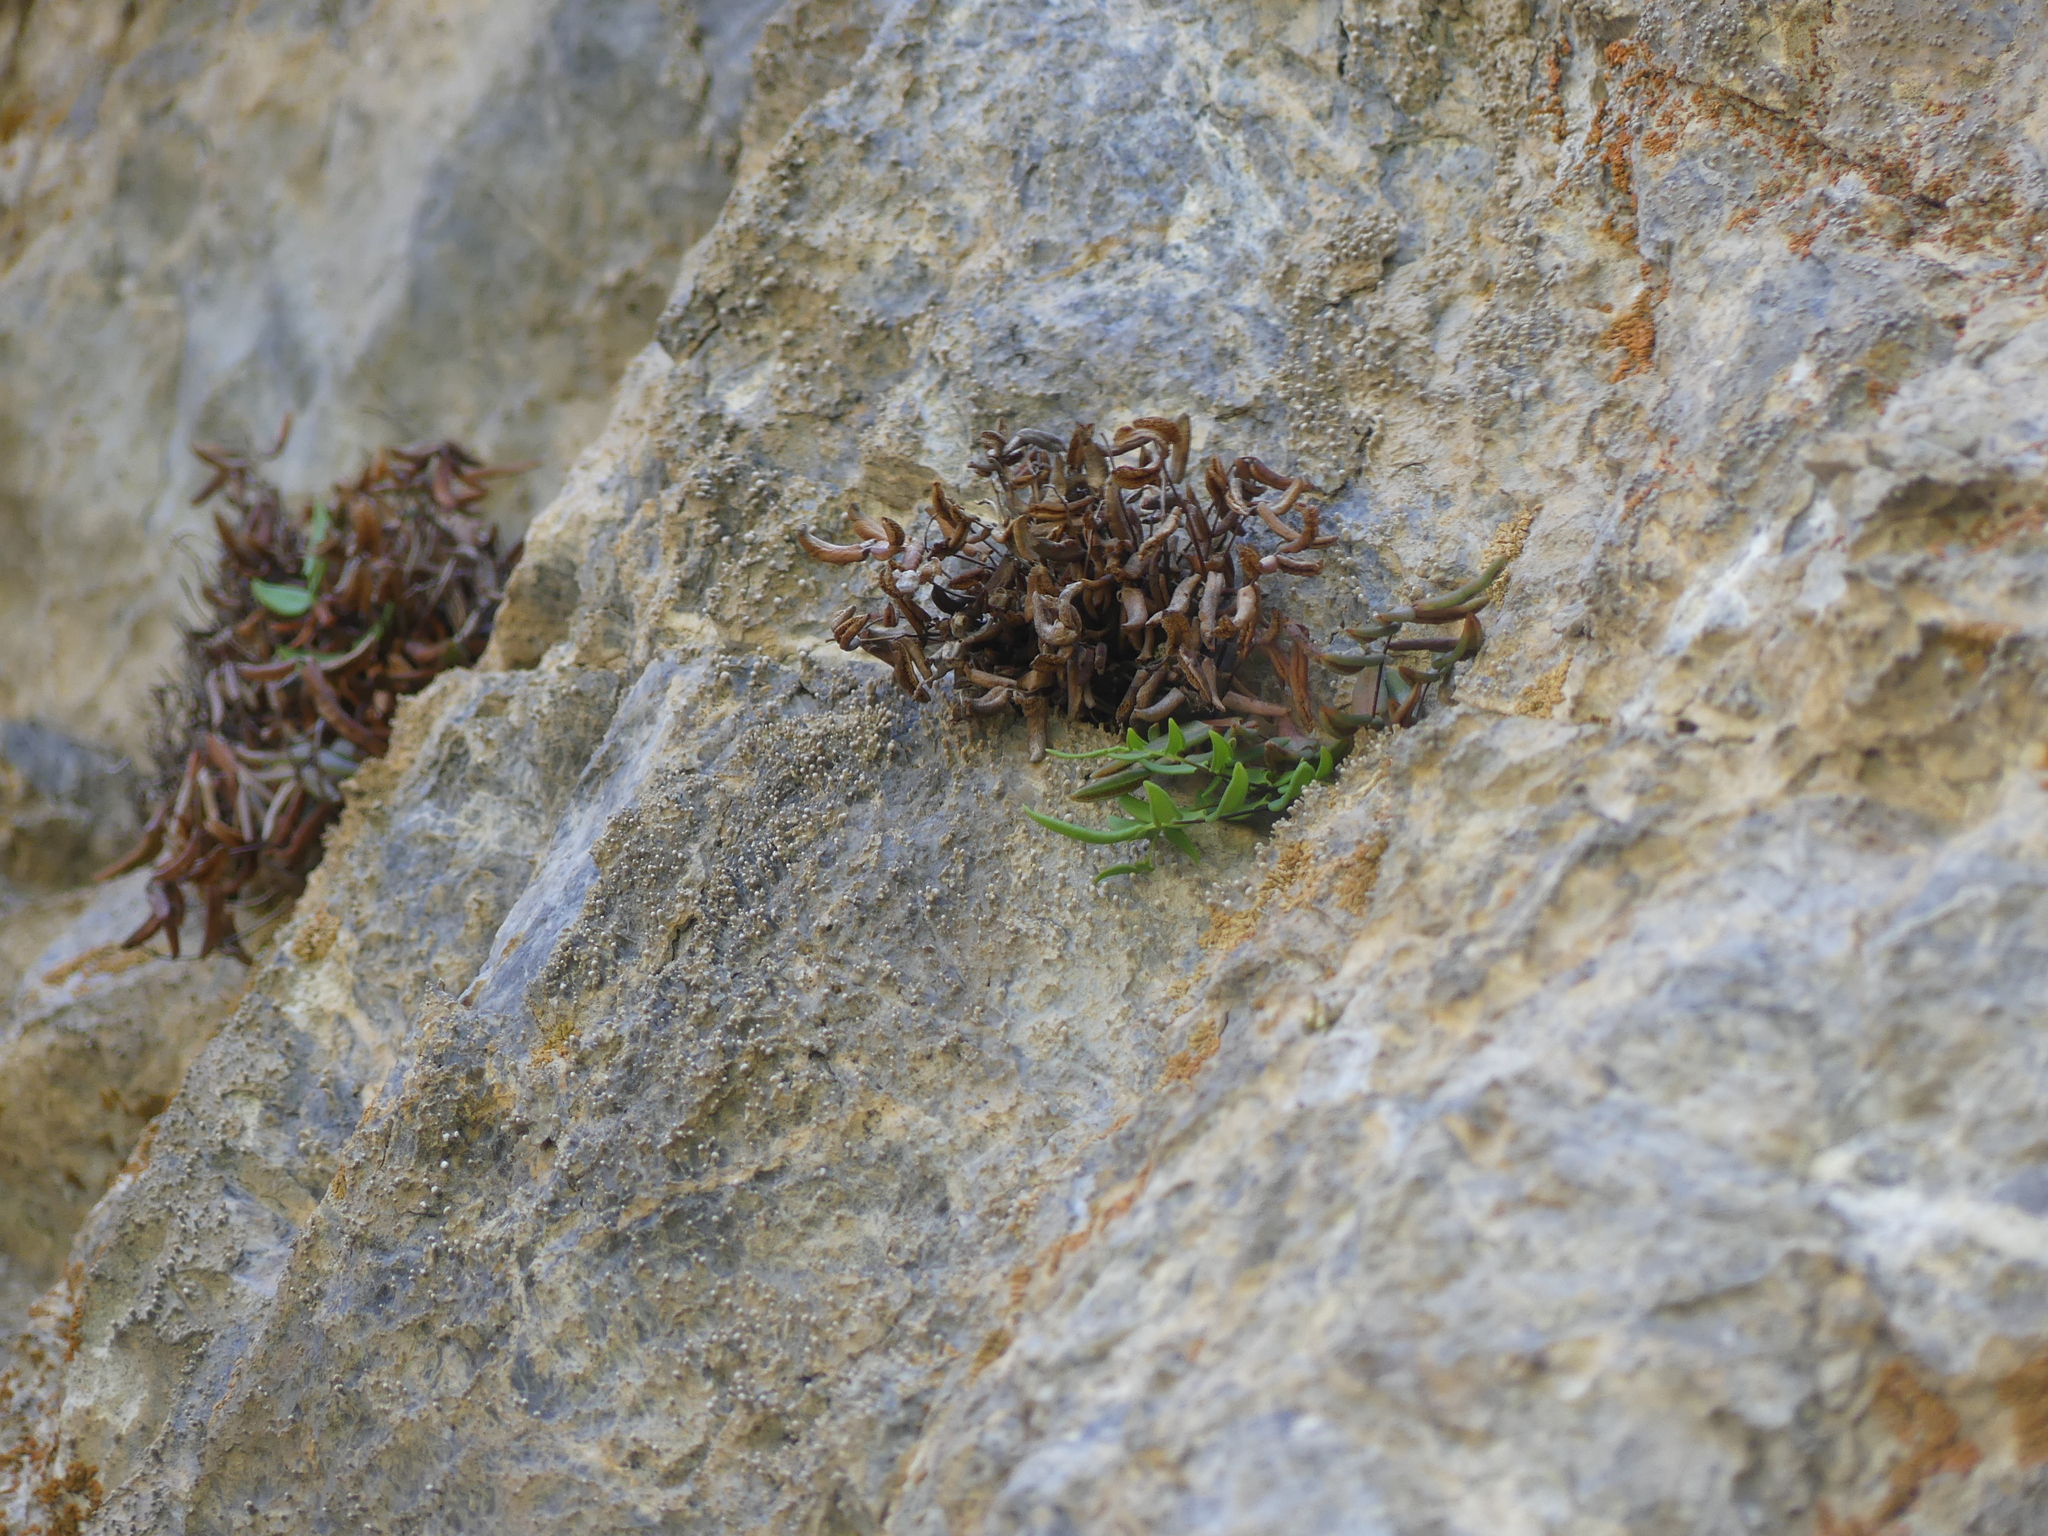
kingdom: Plantae
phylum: Tracheophyta
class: Polypodiopsida
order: Polypodiales
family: Pteridaceae
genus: Pellaea
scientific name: Pellaea glabella
